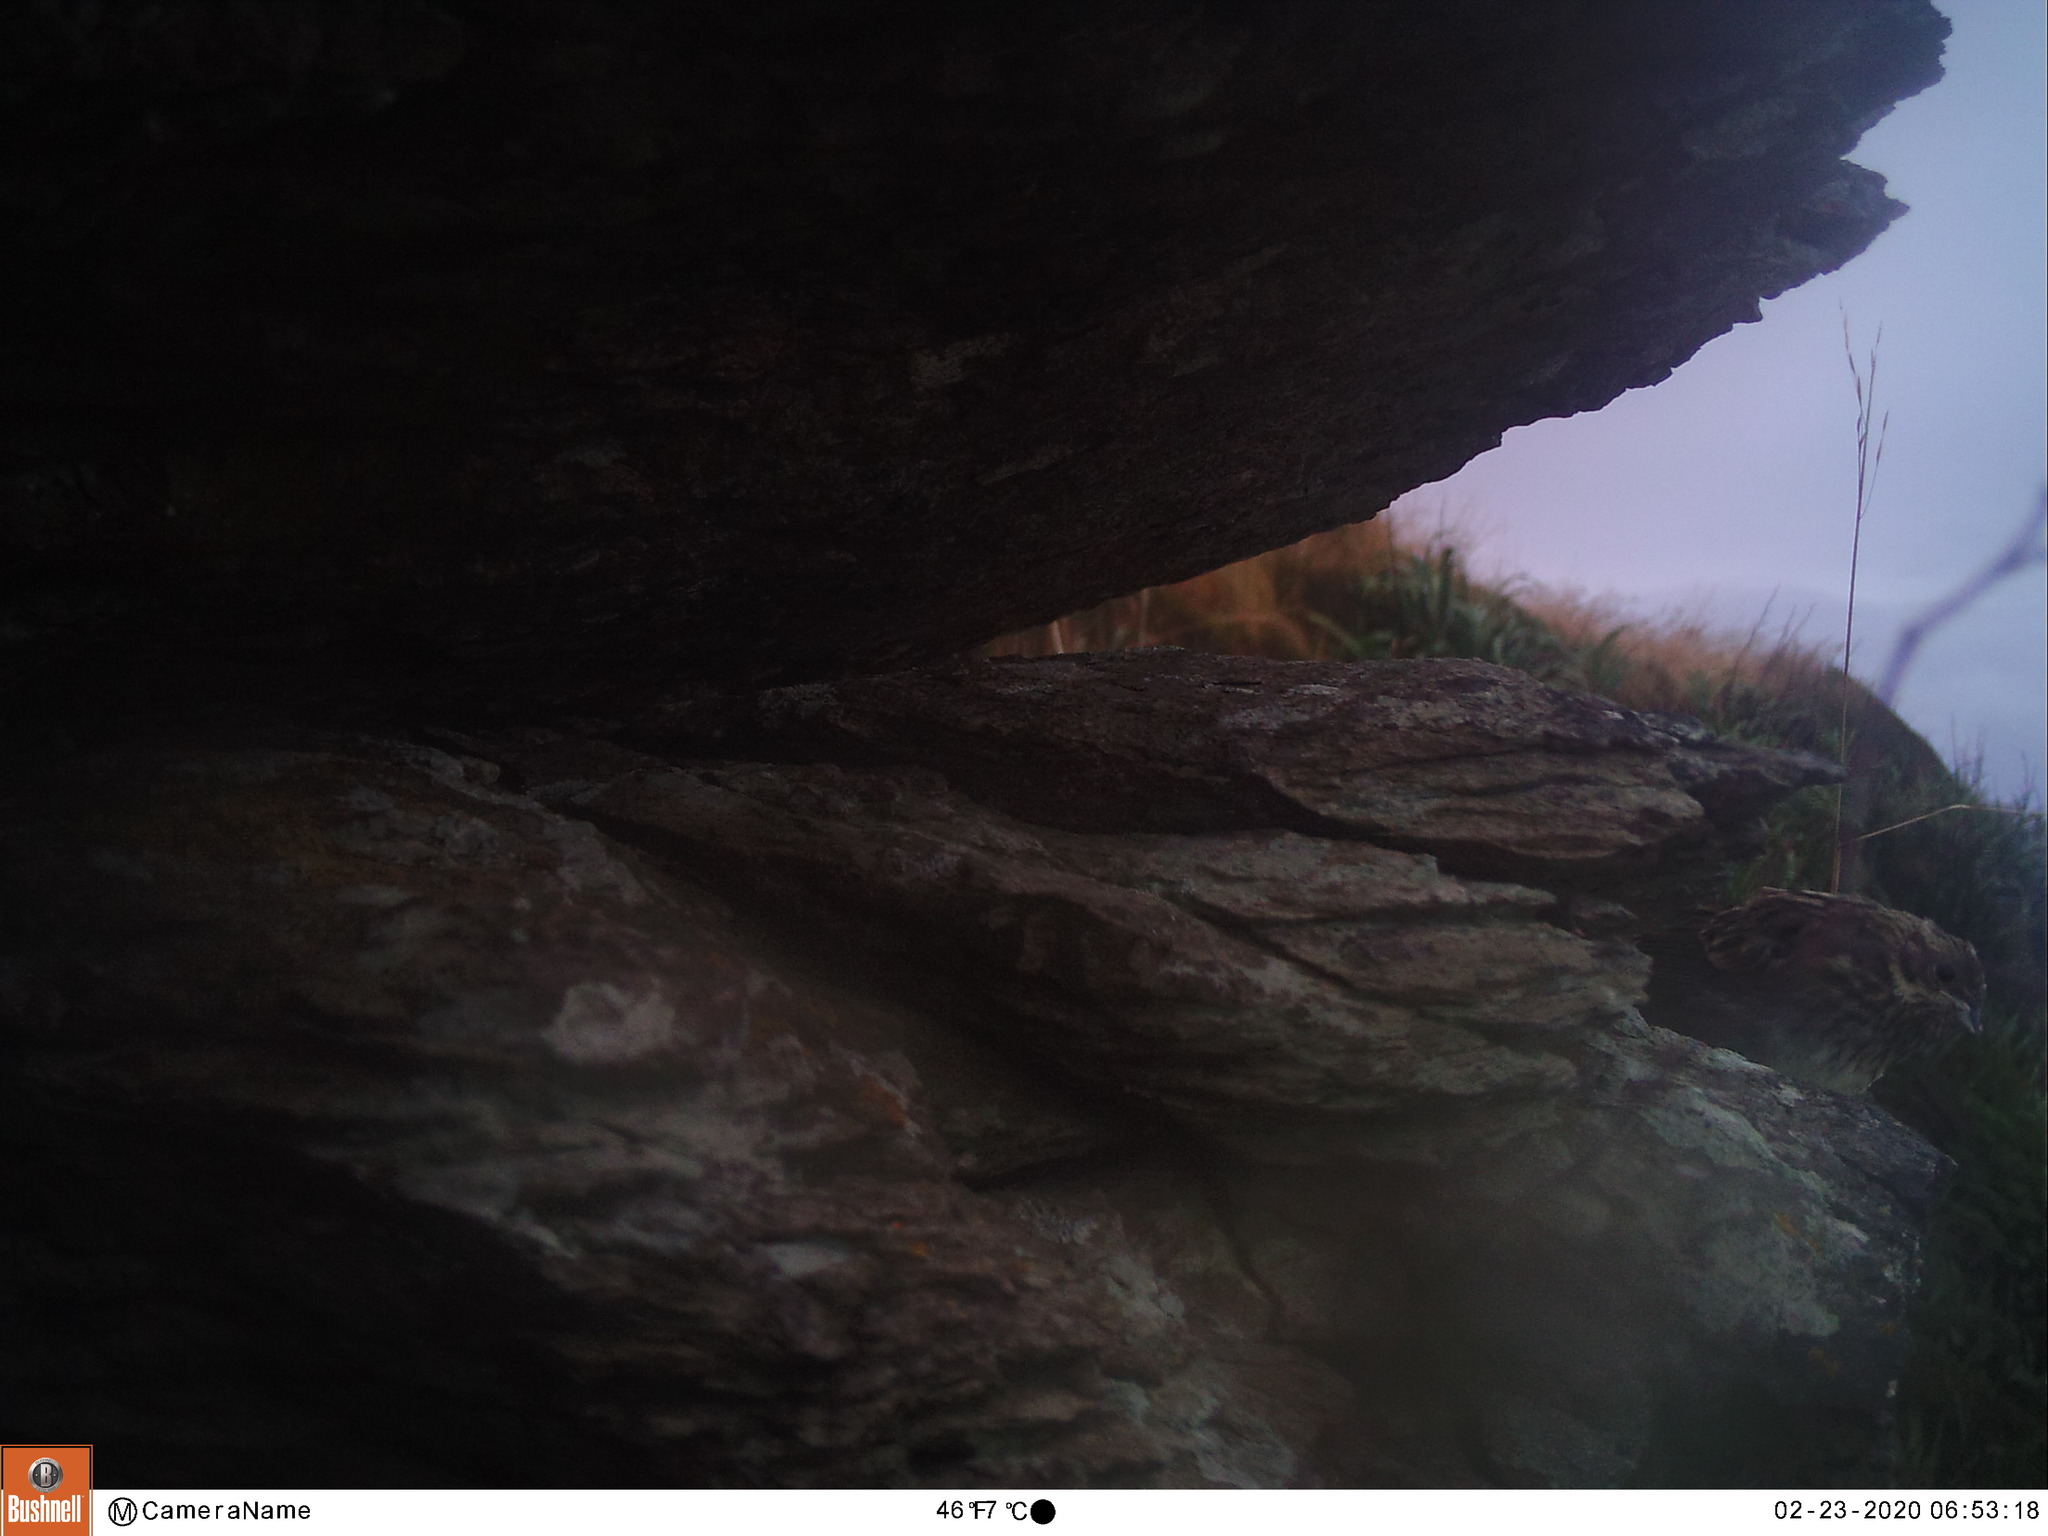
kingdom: Animalia
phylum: Chordata
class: Aves
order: Passeriformes
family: Emberizidae
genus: Emberiza
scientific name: Emberiza citrinella
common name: Yellowhammer
